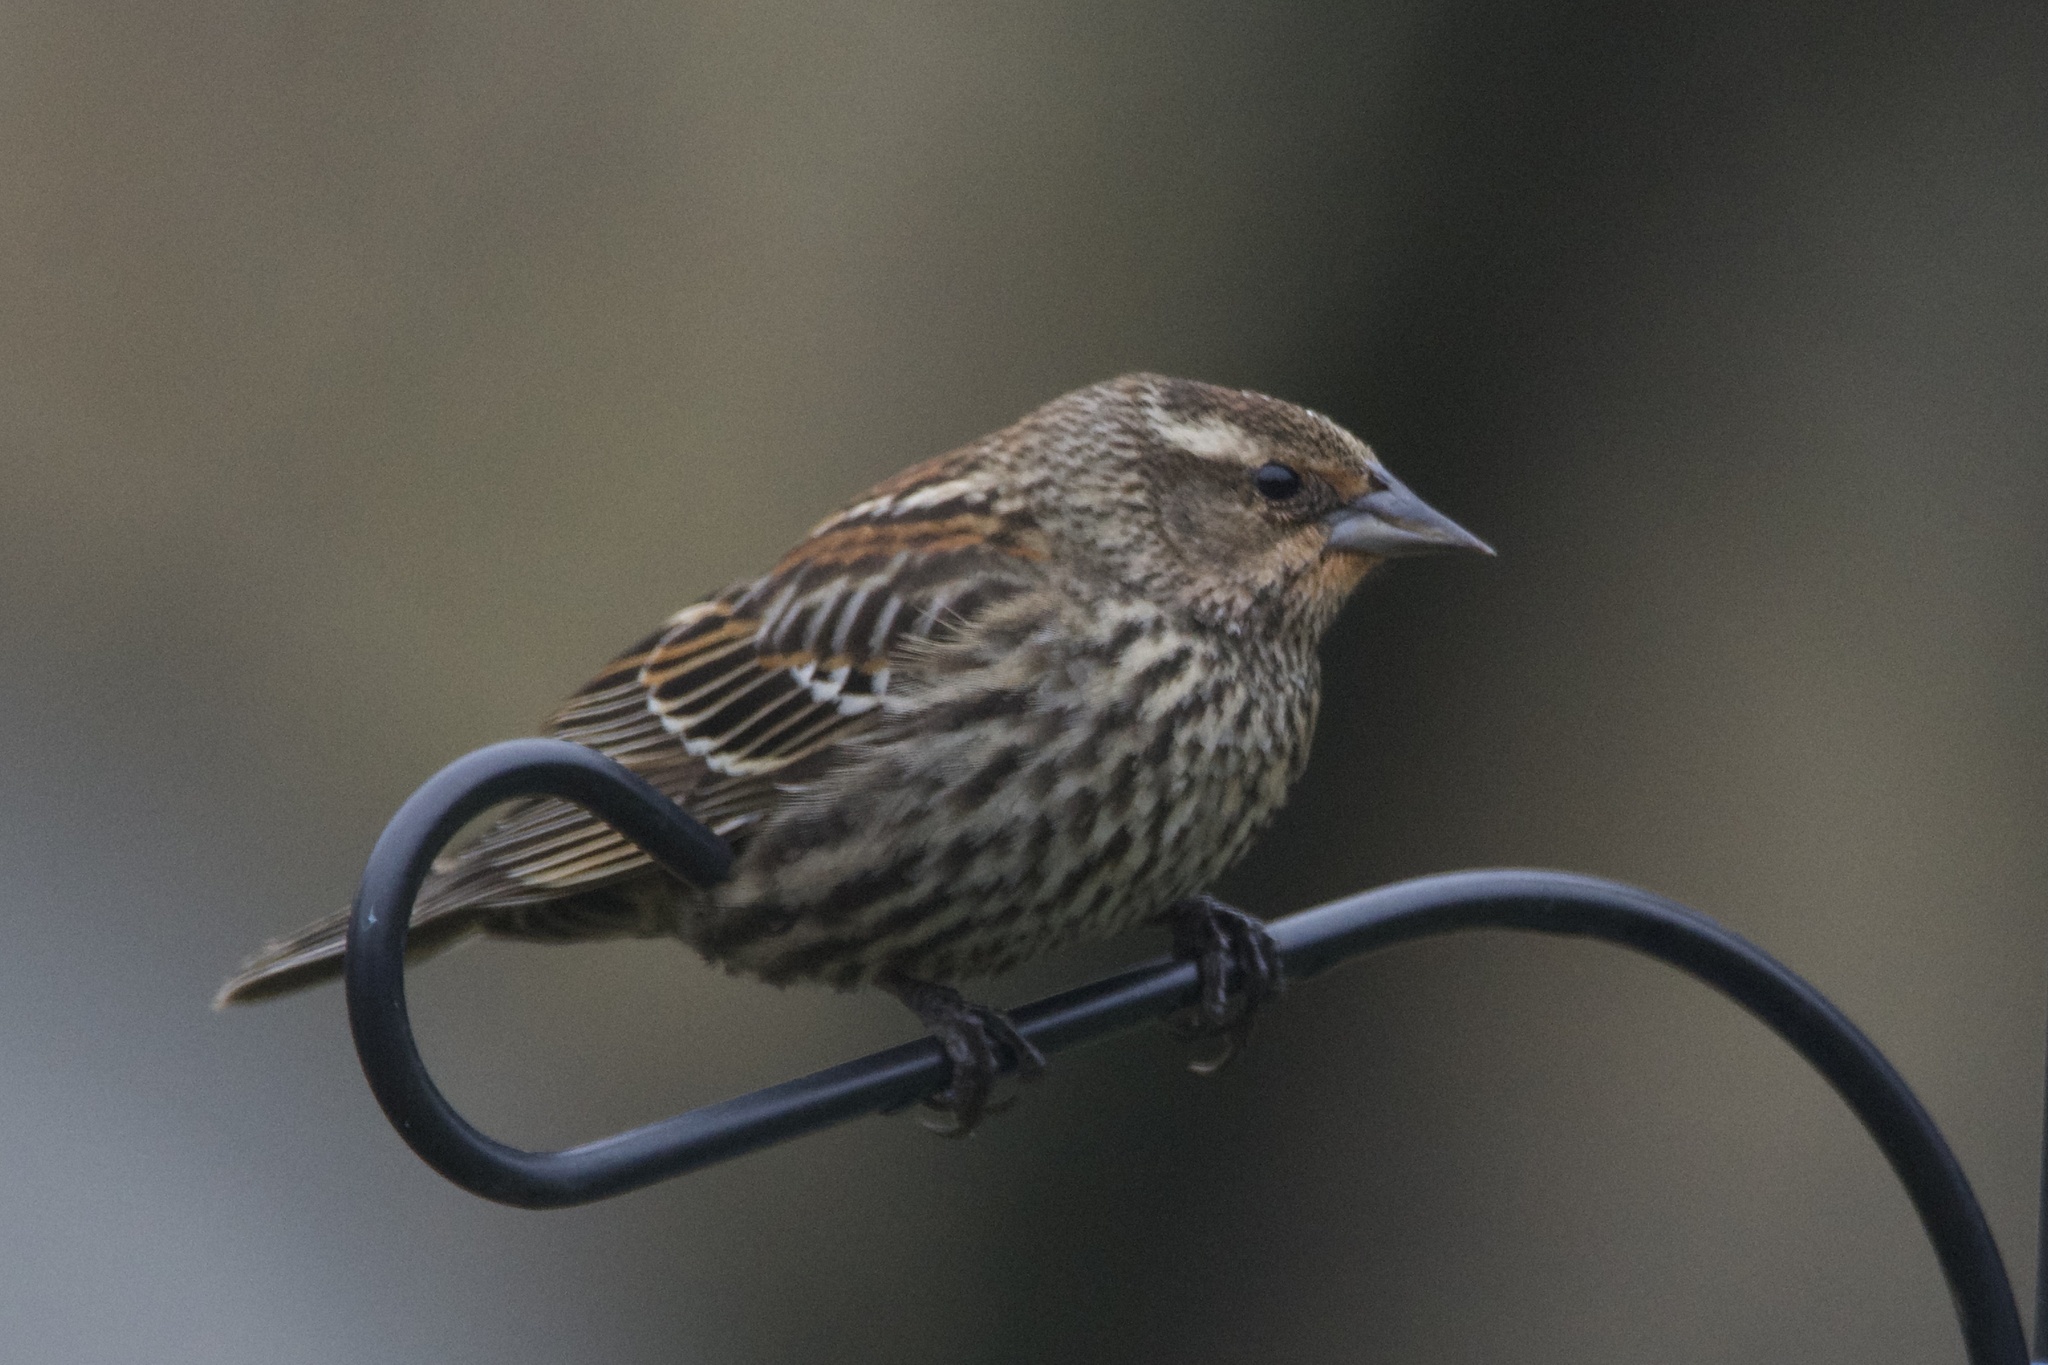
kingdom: Animalia
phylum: Chordata
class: Aves
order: Passeriformes
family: Icteridae
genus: Agelaius
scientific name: Agelaius phoeniceus
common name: Red-winged blackbird
